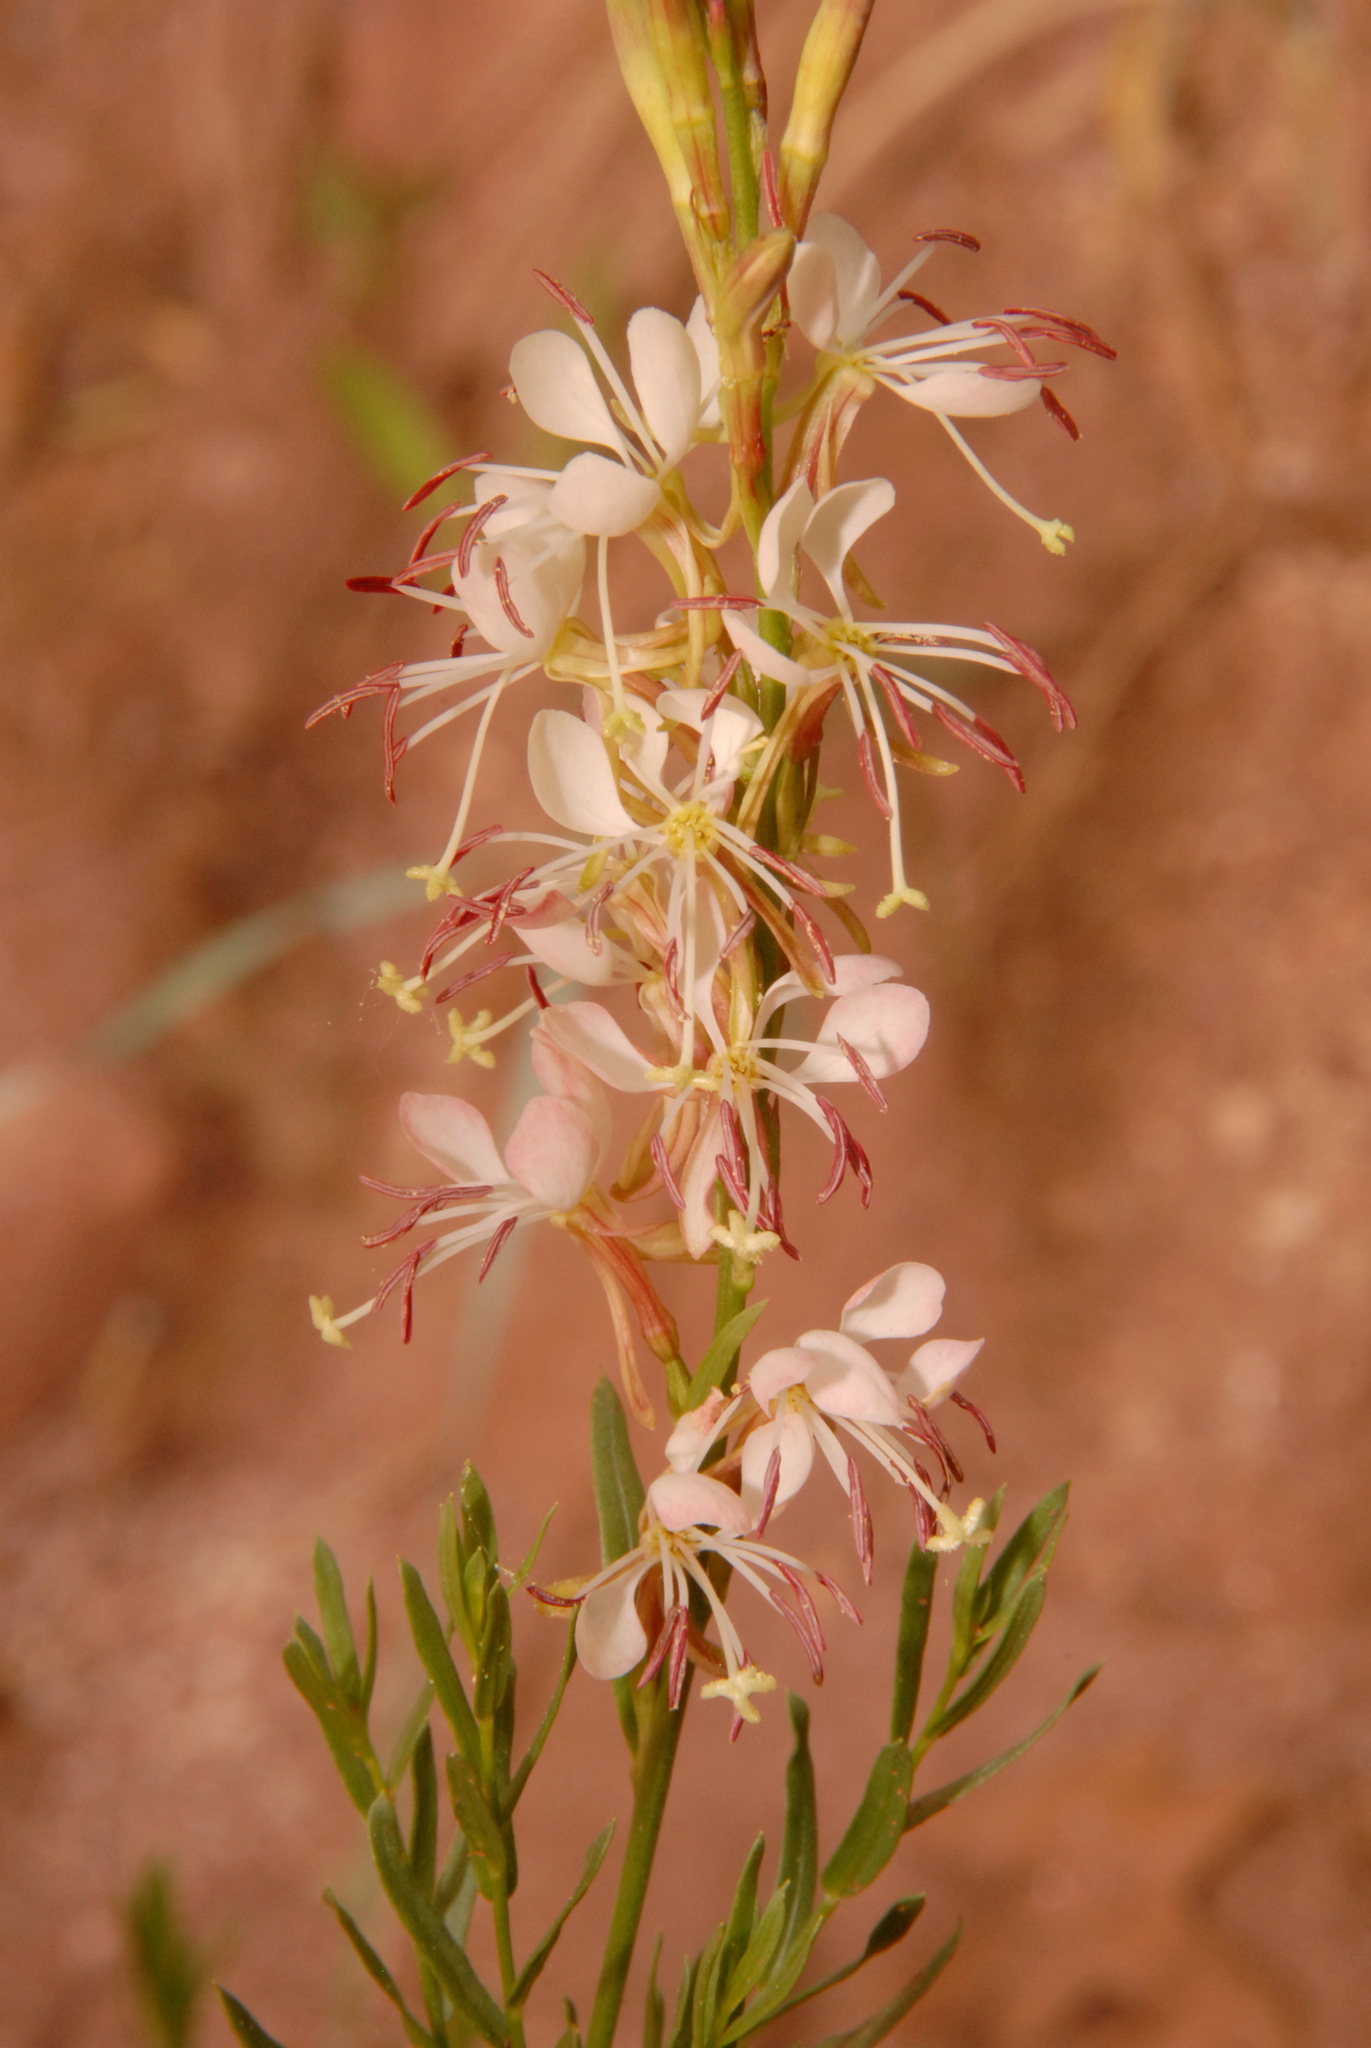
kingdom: Plantae
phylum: Tracheophyta
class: Magnoliopsida
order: Myrtales
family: Onagraceae
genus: Oenothera
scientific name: Oenothera suffrutescens
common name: Scarlet beeblossom
